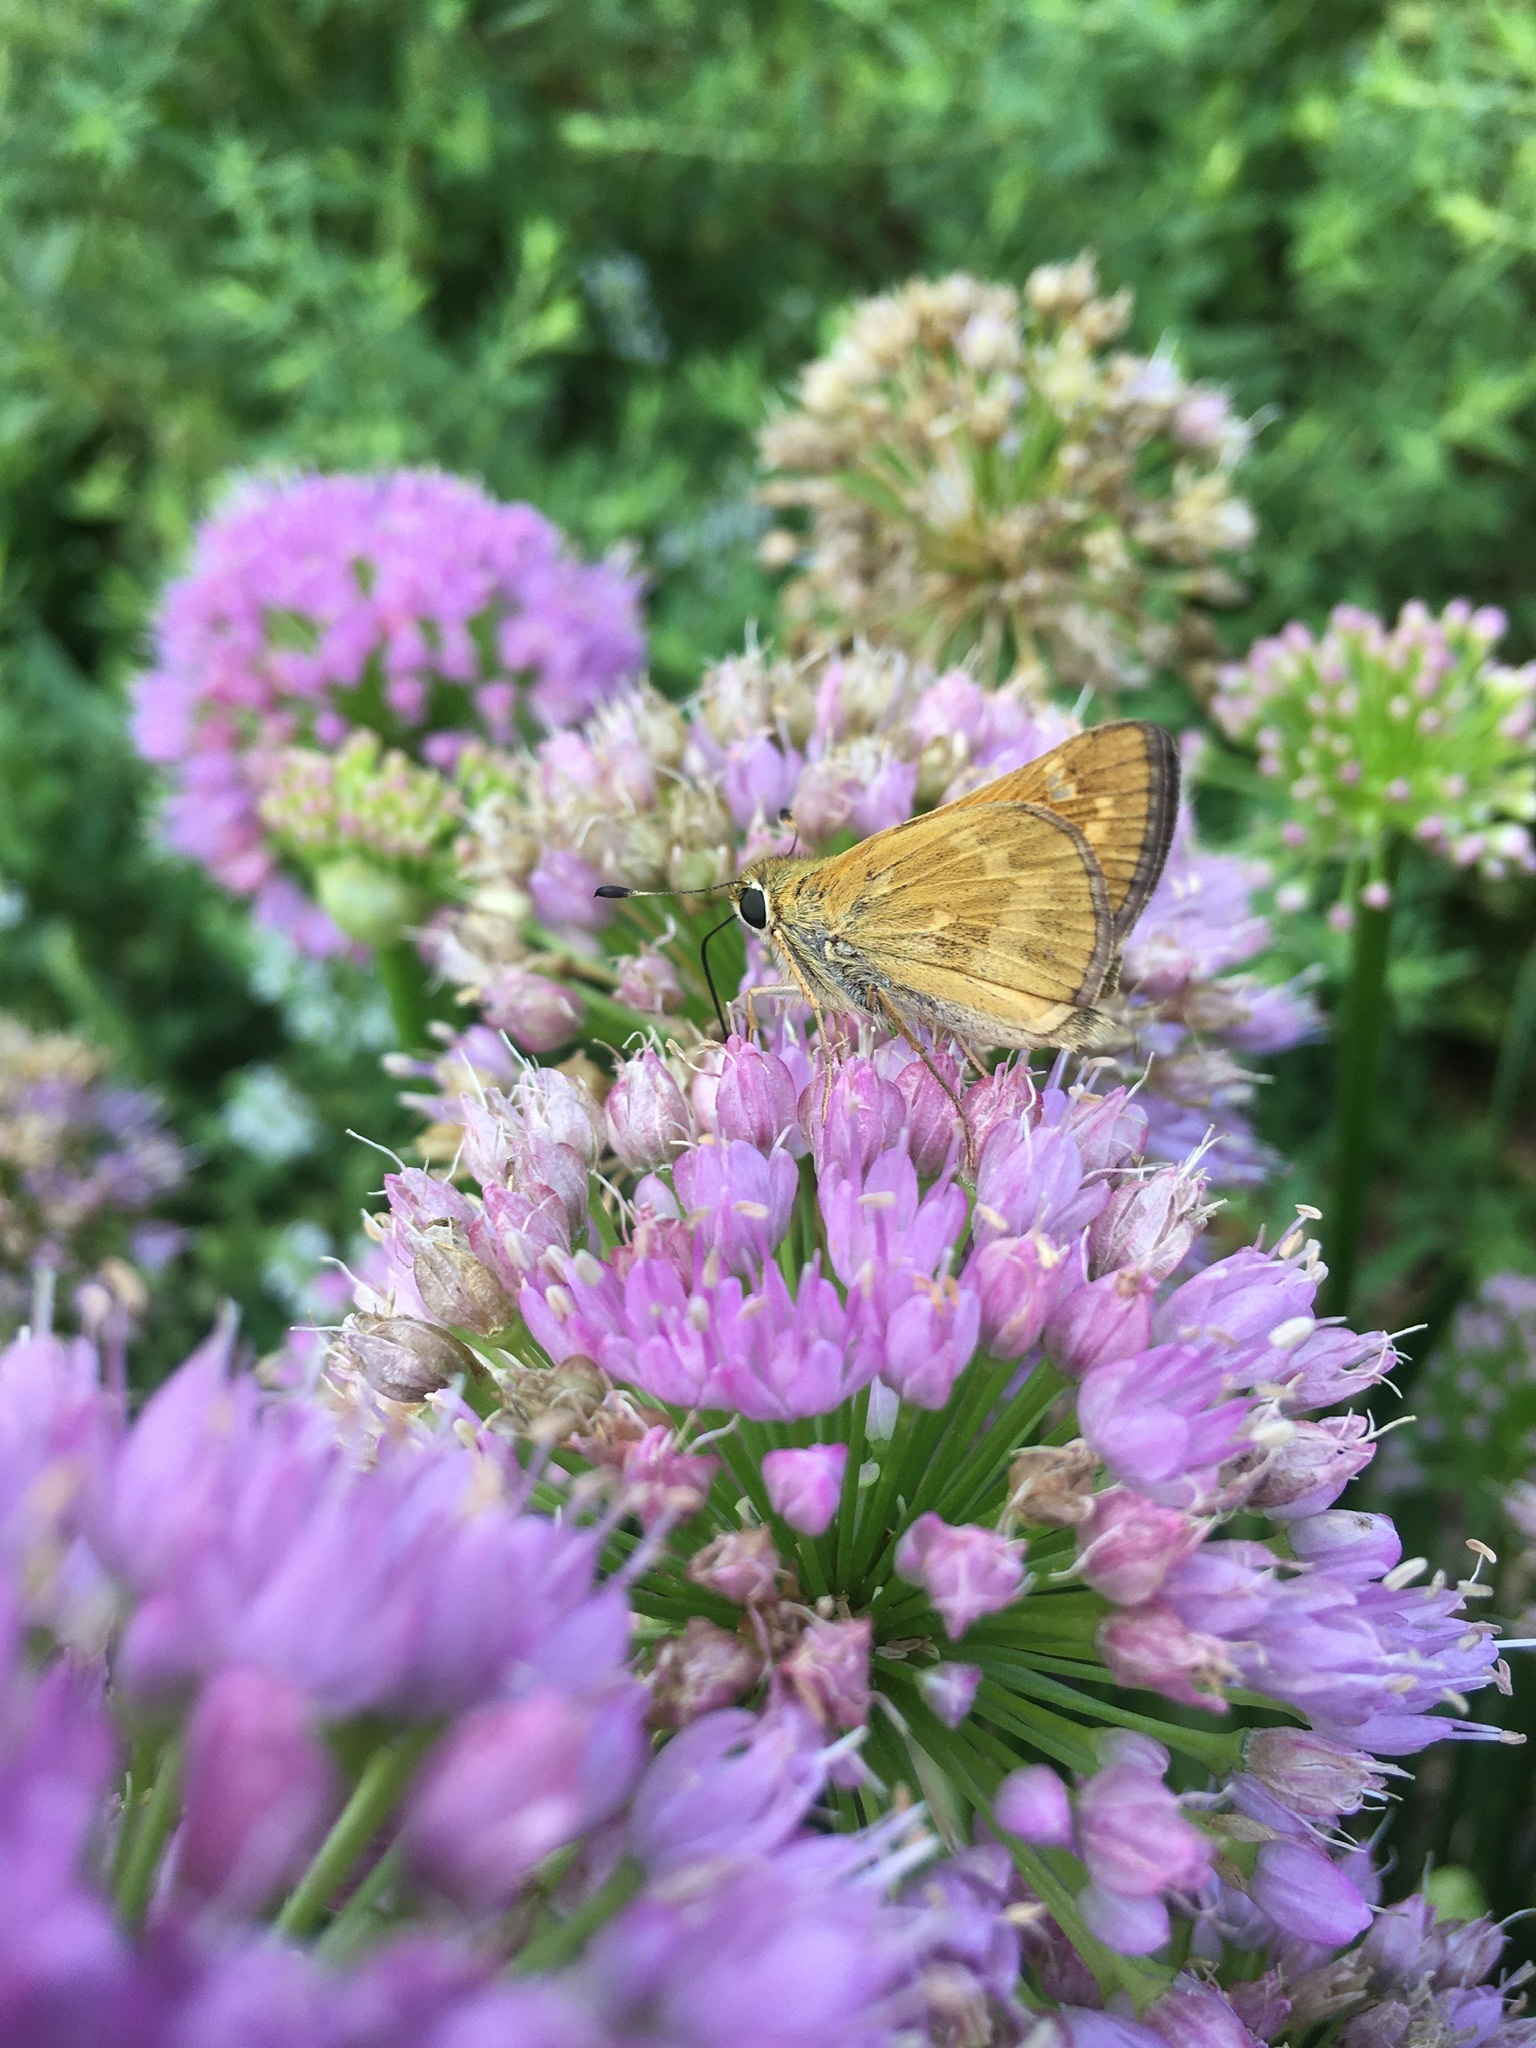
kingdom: Animalia
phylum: Arthropoda
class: Insecta
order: Lepidoptera
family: Hesperiidae
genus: Atalopedes
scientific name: Atalopedes
